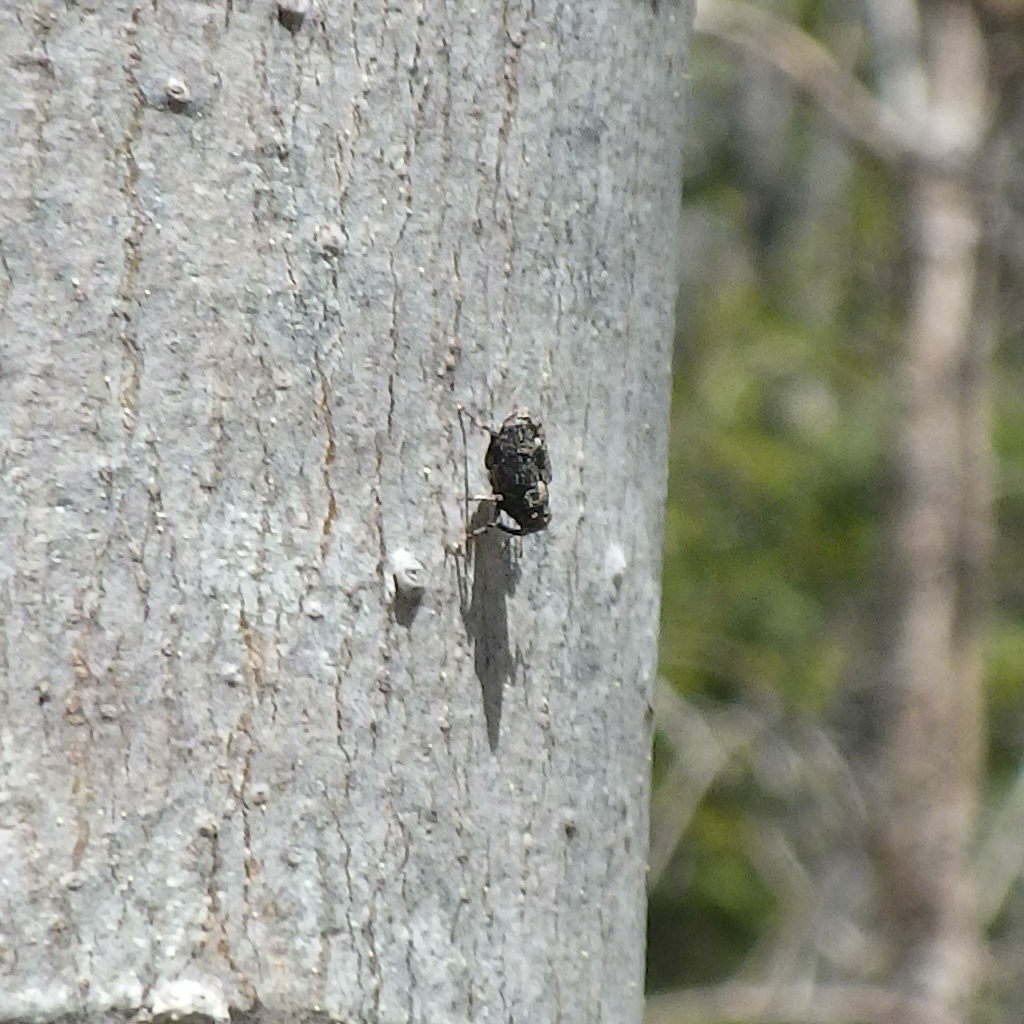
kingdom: Animalia
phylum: Arthropoda
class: Insecta
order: Coleoptera
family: Curculionidae
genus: Lechriops
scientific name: Lechriops oculatus
